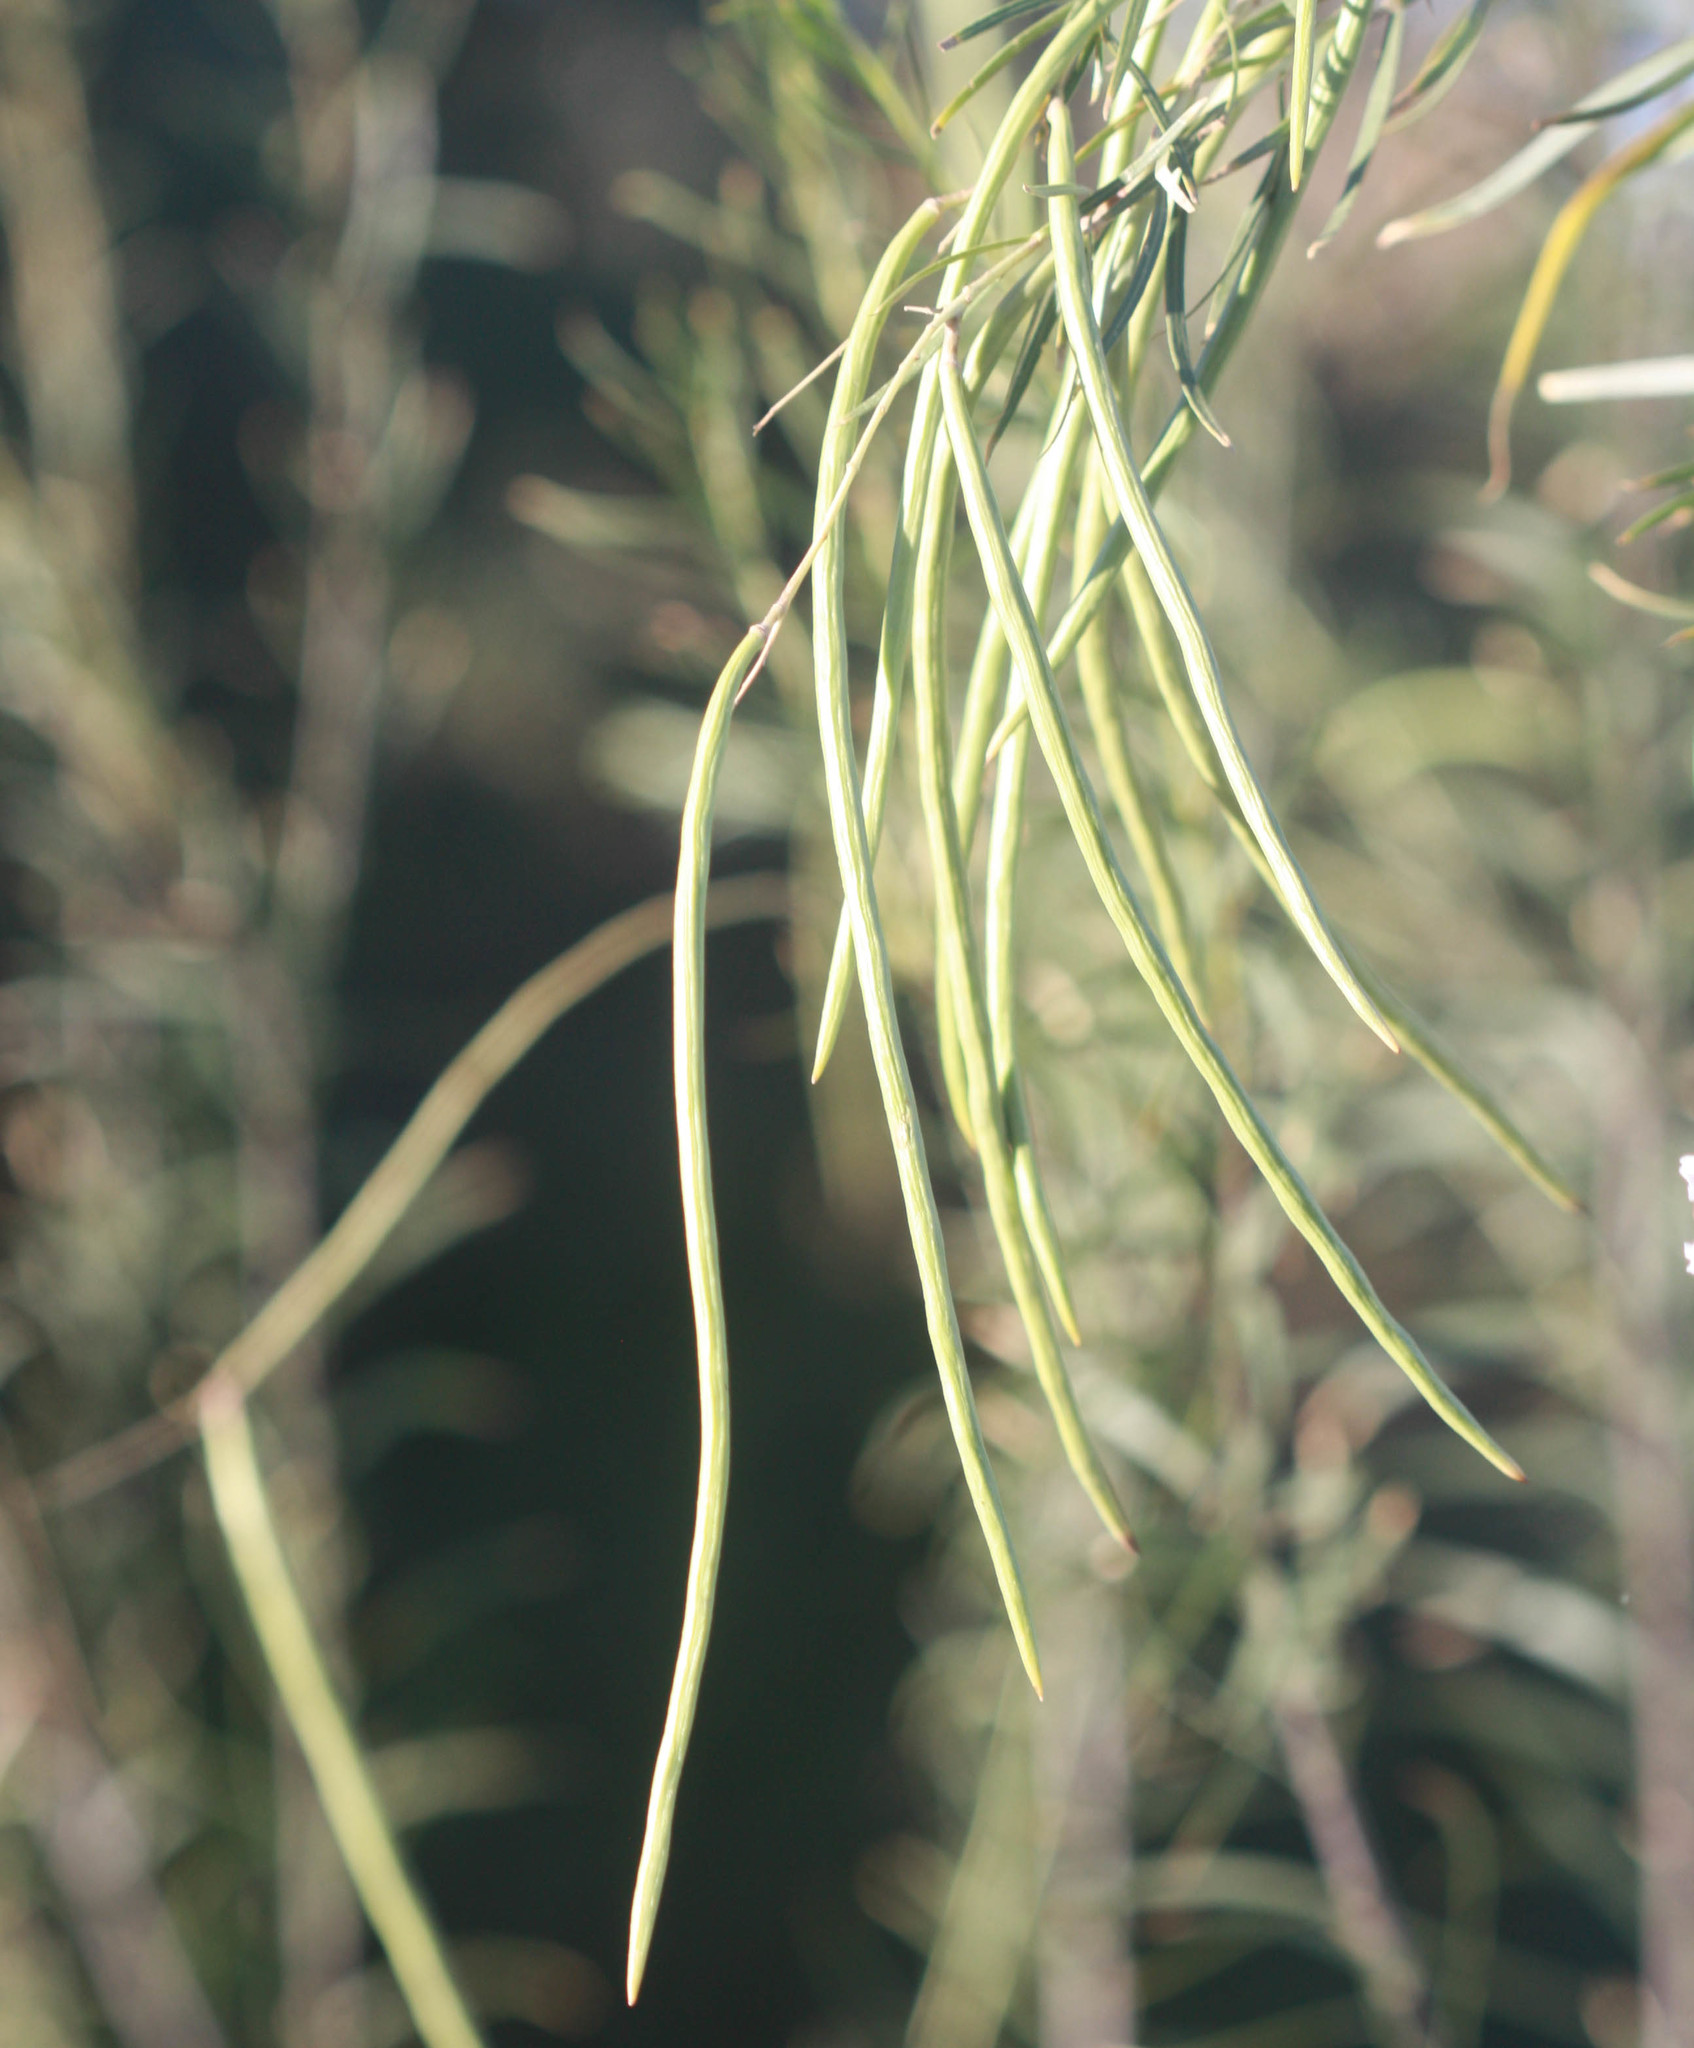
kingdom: Plantae
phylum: Tracheophyta
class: Magnoliopsida
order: Lamiales
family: Bignoniaceae
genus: Chilopsis
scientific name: Chilopsis linearis
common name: Desert-willow
